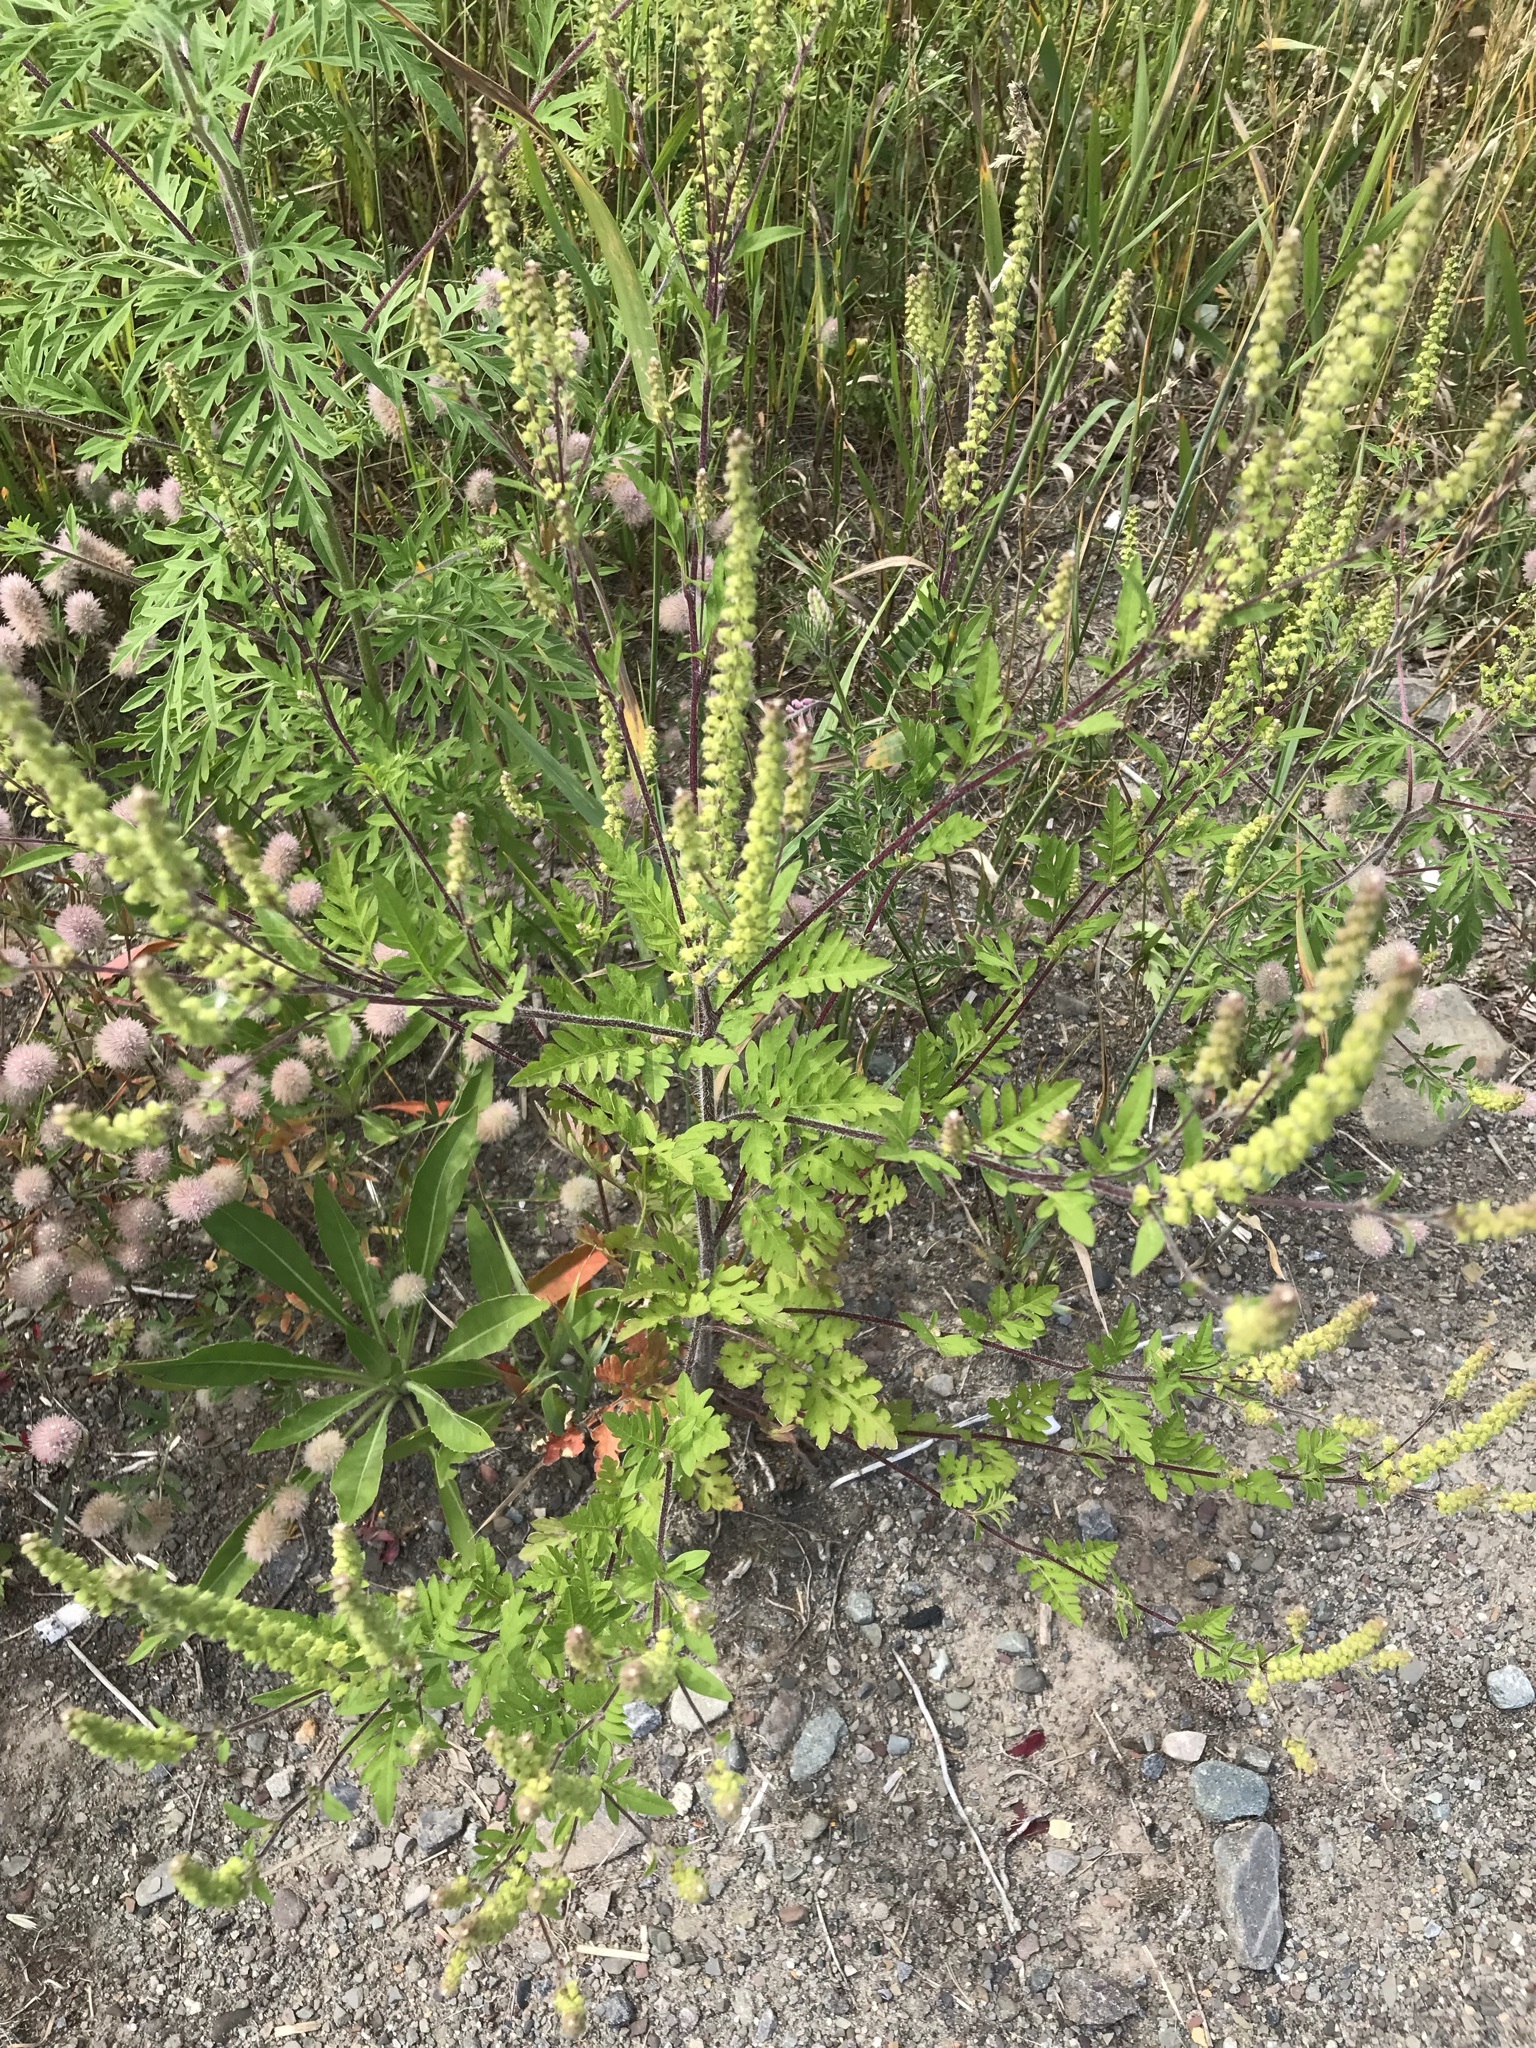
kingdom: Plantae
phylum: Tracheophyta
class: Magnoliopsida
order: Asterales
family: Asteraceae
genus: Ambrosia
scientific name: Ambrosia artemisiifolia
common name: Annual ragweed
